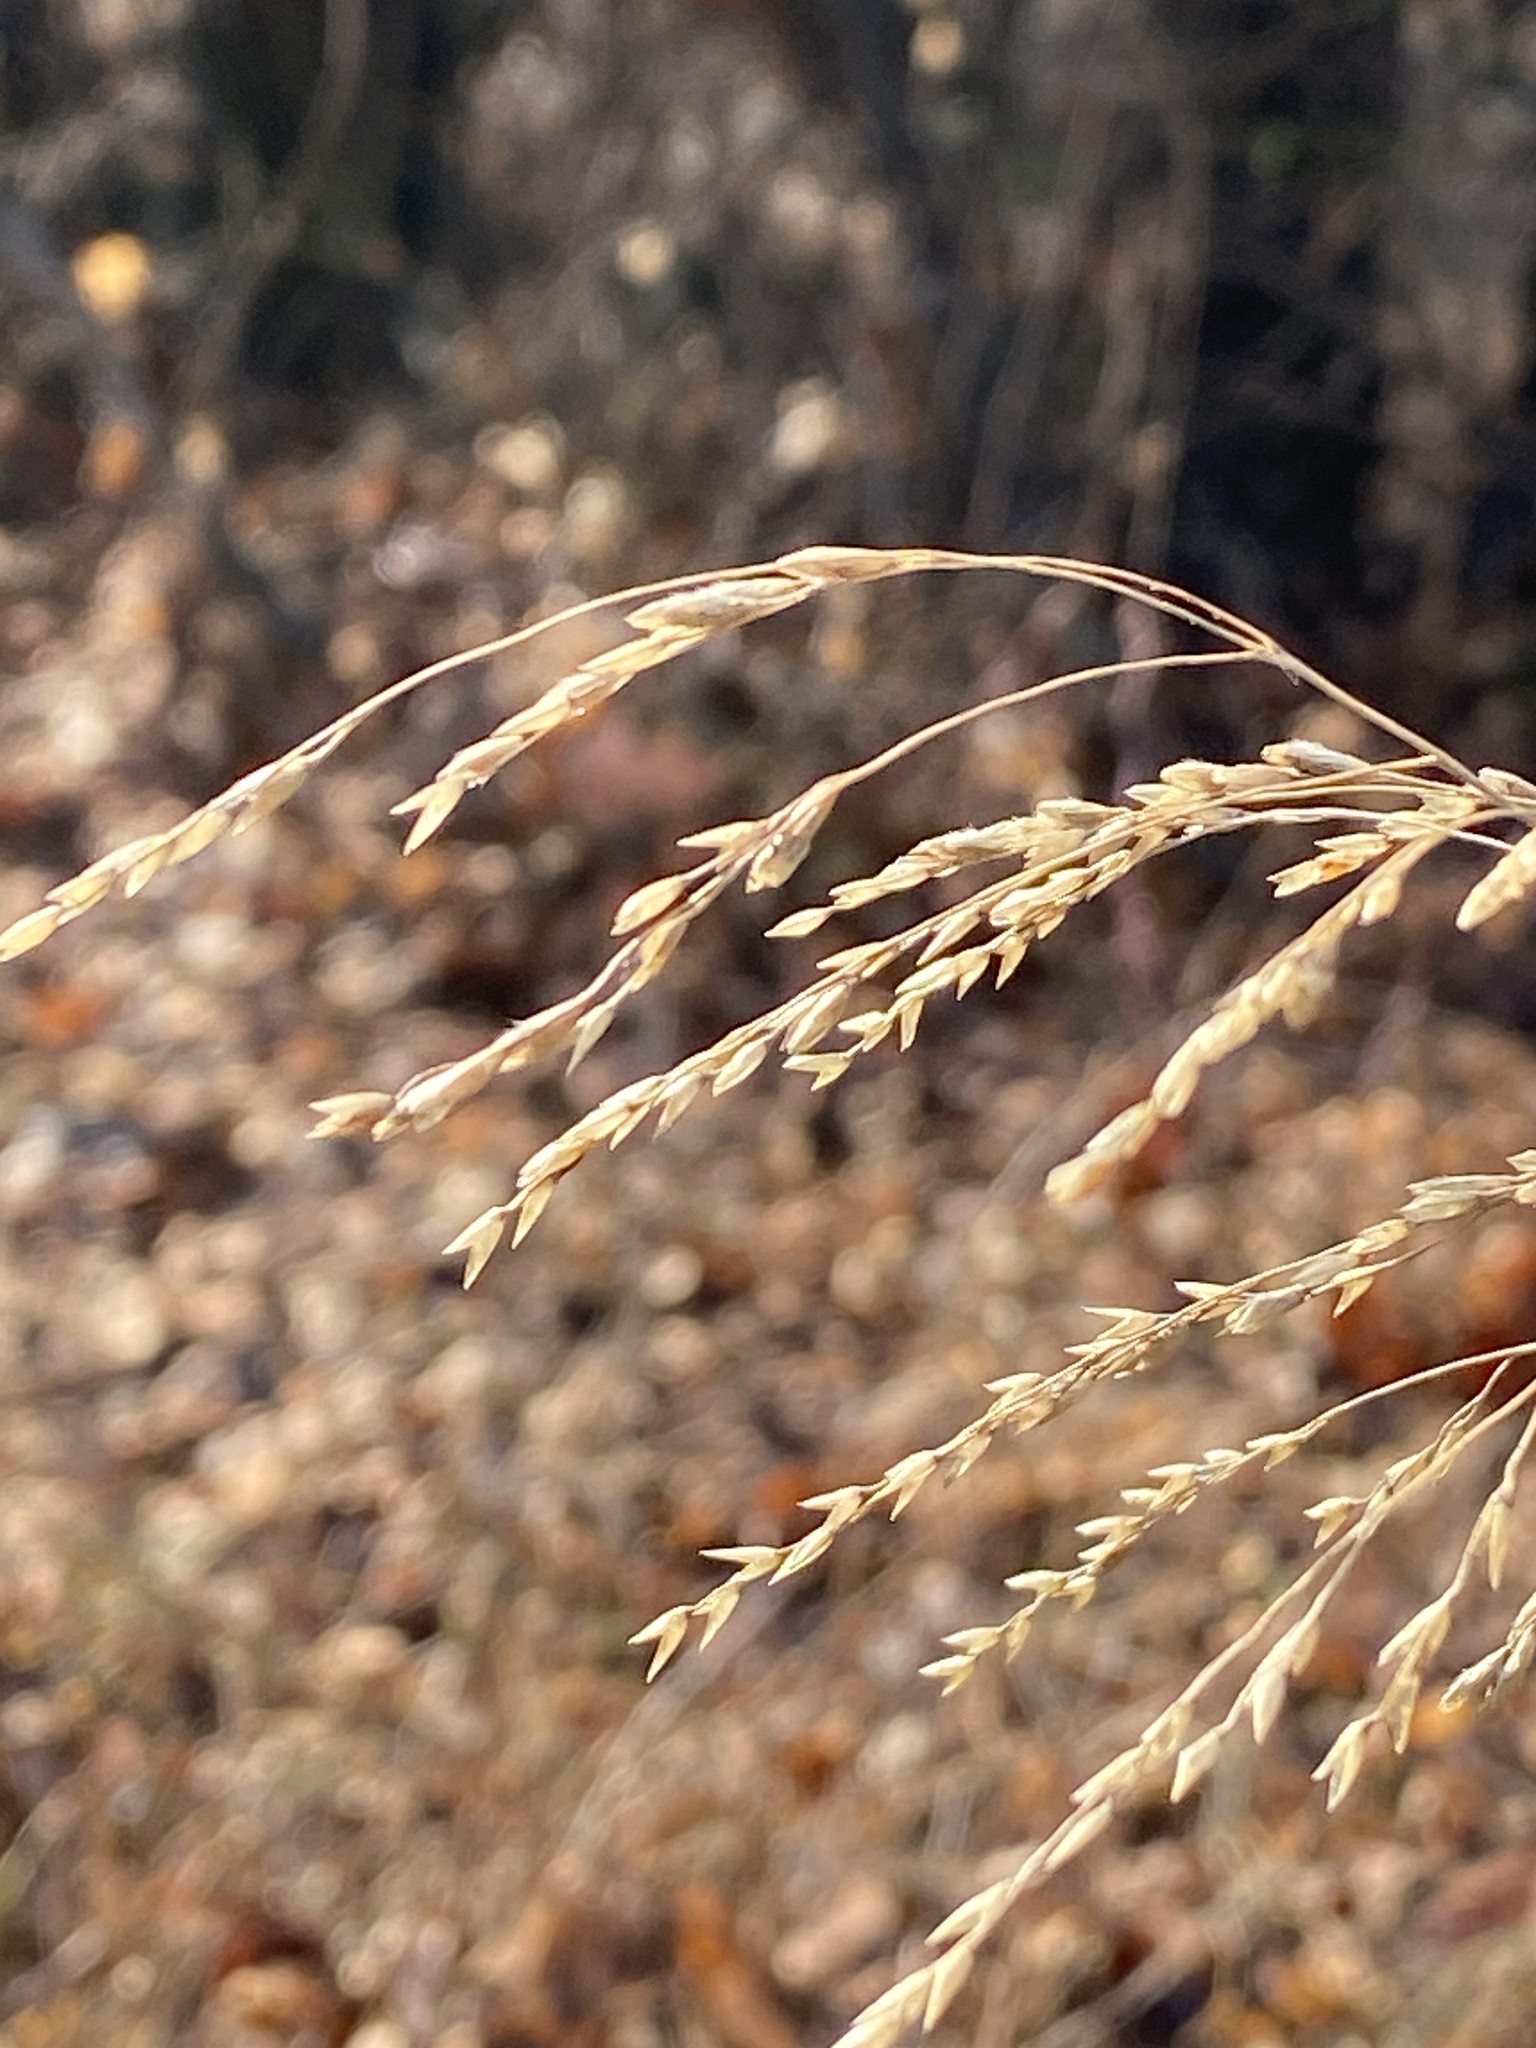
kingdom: Plantae
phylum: Tracheophyta
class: Liliopsida
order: Poales
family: Poaceae
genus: Tridens
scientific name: Tridens flavus
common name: Purpletop
